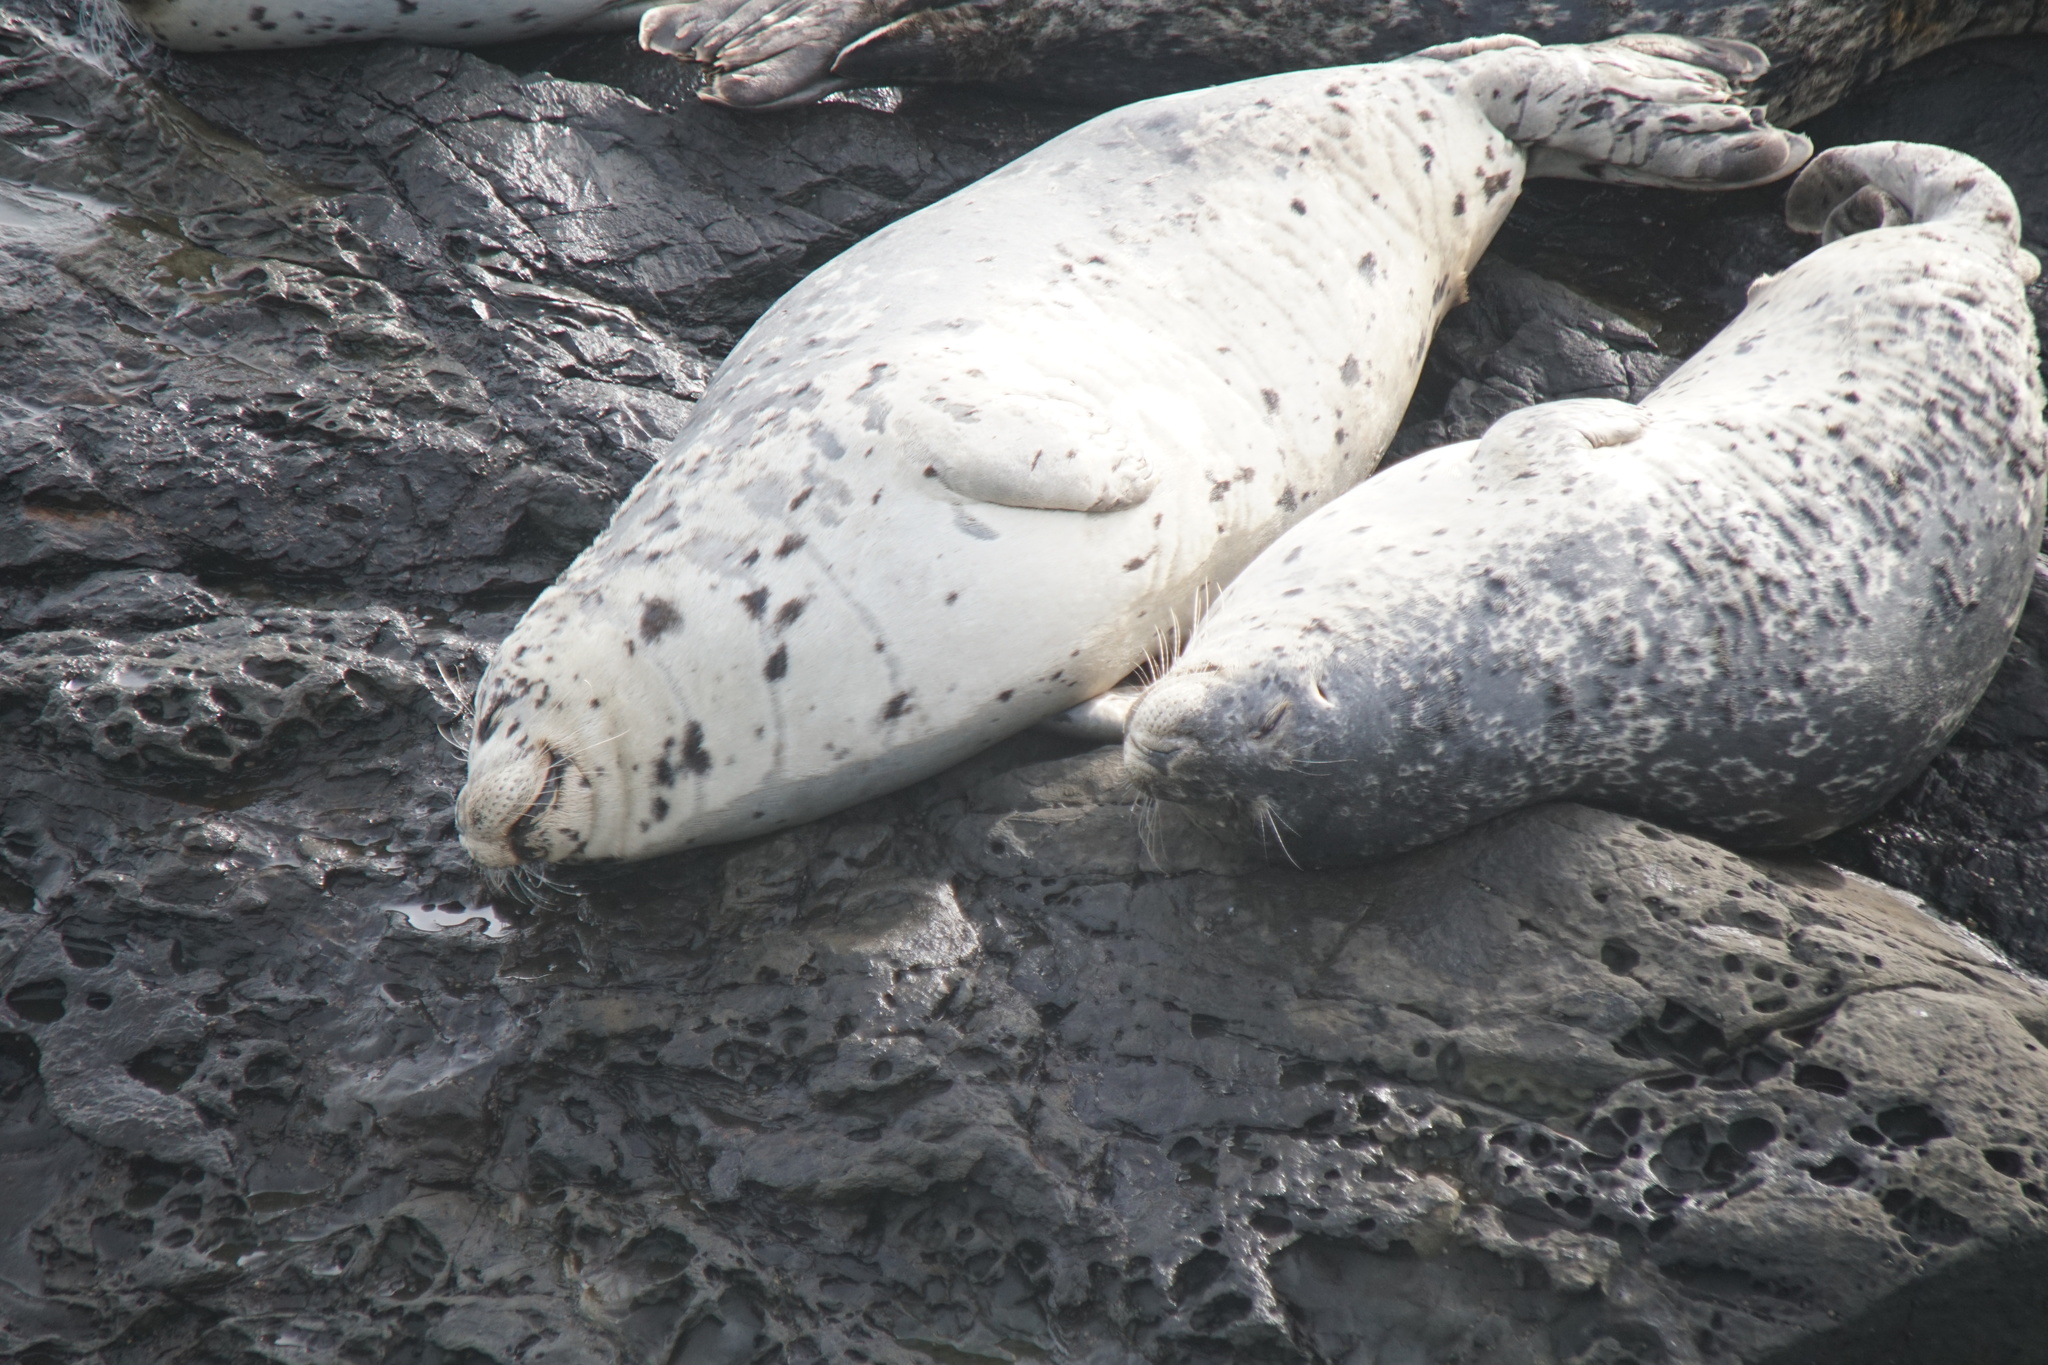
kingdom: Animalia
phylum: Chordata
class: Mammalia
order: Carnivora
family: Phocidae
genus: Phoca
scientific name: Phoca vitulina
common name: Harbor seal
